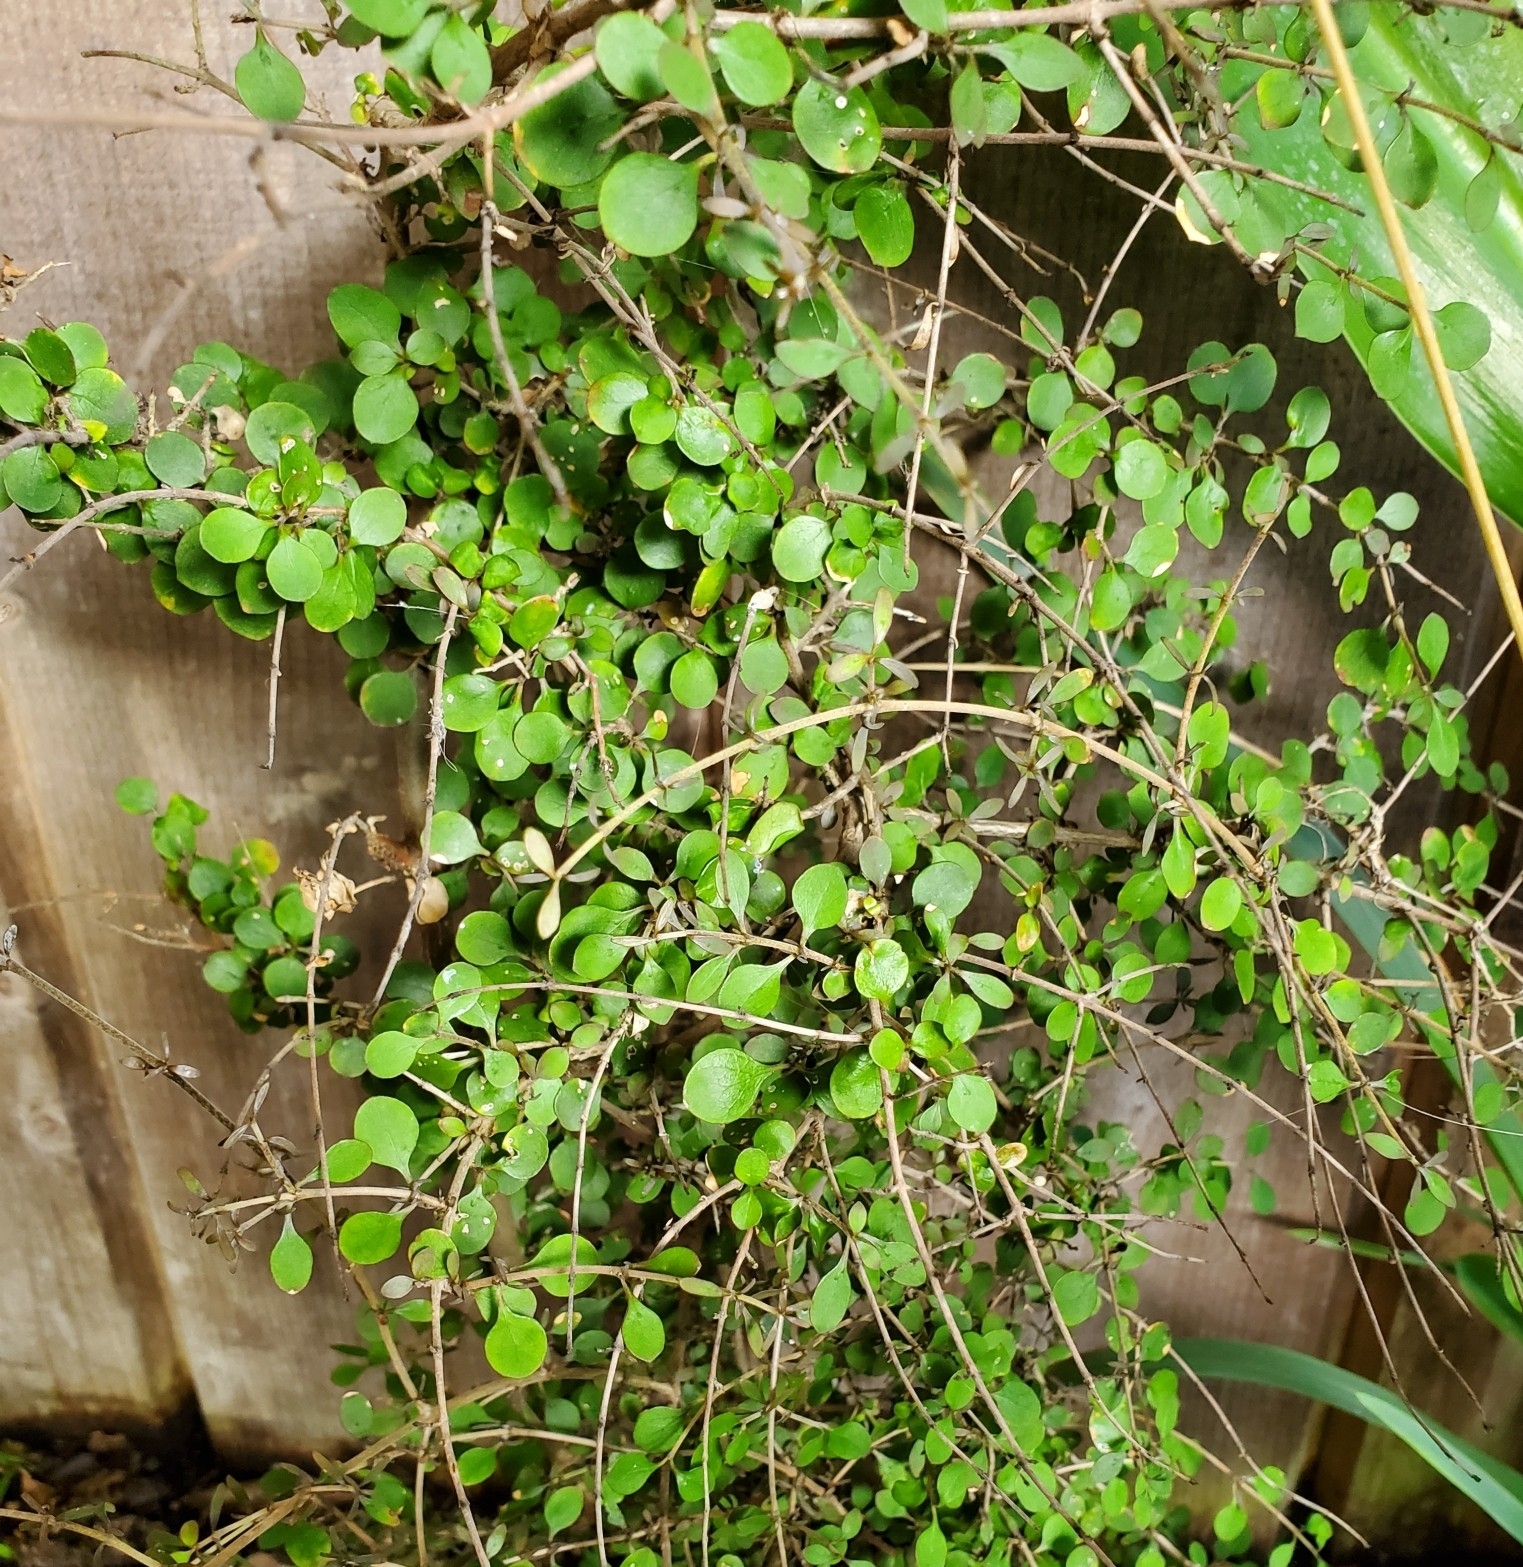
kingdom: Plantae
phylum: Tracheophyta
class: Magnoliopsida
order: Gentianales
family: Rubiaceae
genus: Coprosma
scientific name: Coprosma rhamnoides
